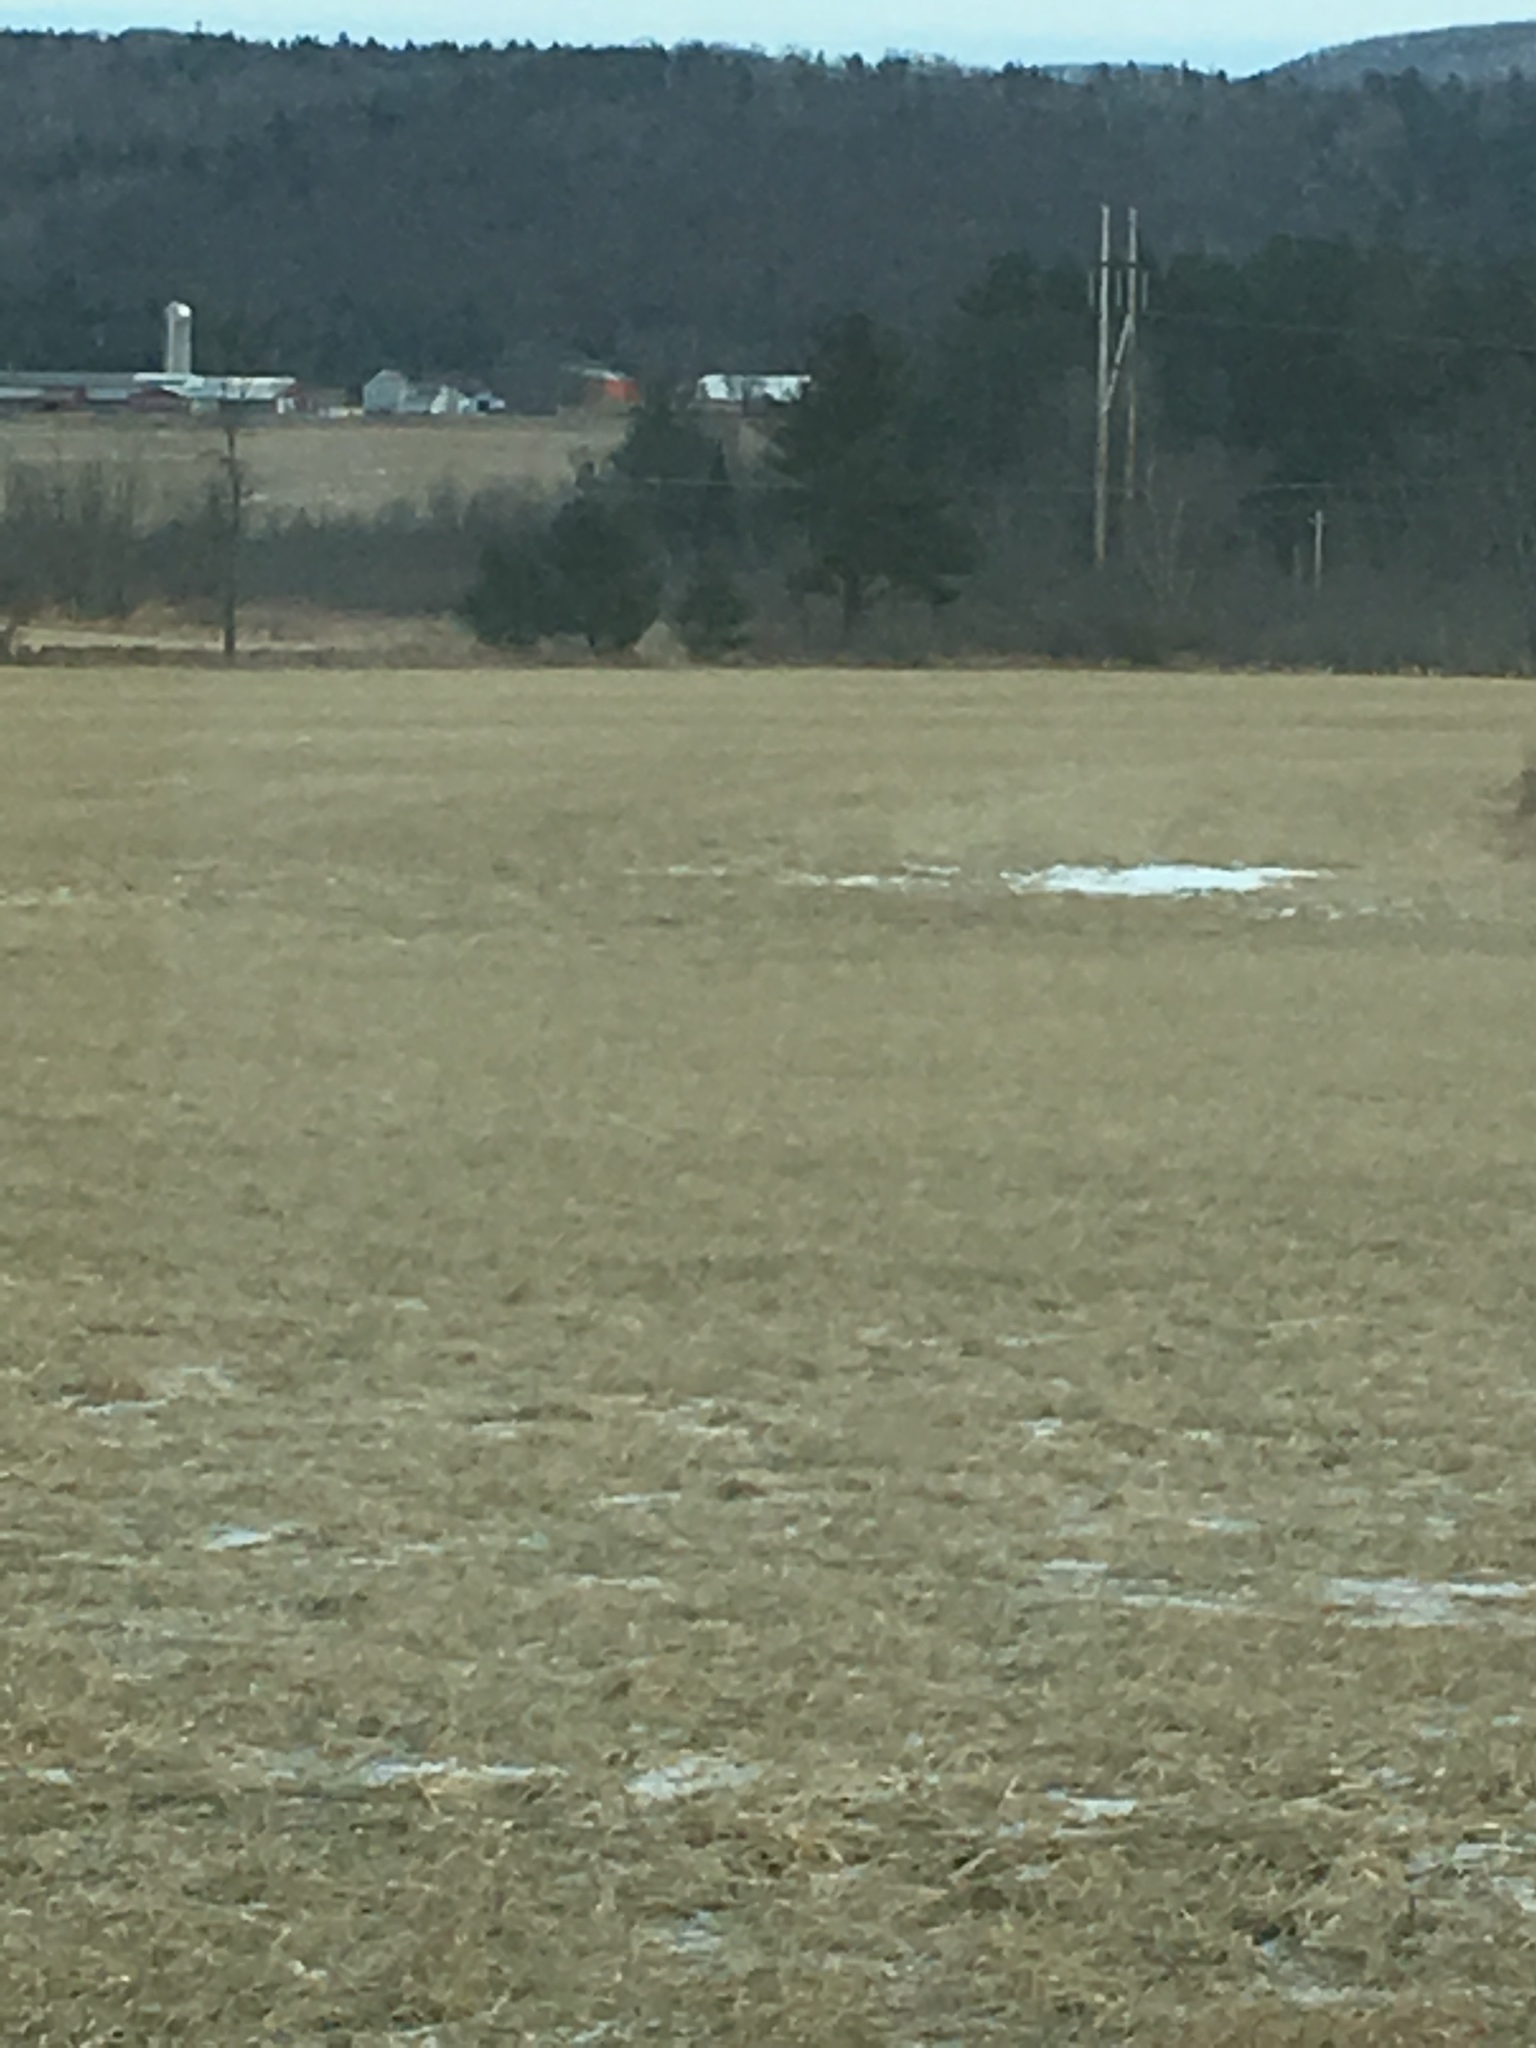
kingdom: Plantae
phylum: Tracheophyta
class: Pinopsida
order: Pinales
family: Pinaceae
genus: Pinus
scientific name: Pinus strobus
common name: Weymouth pine
